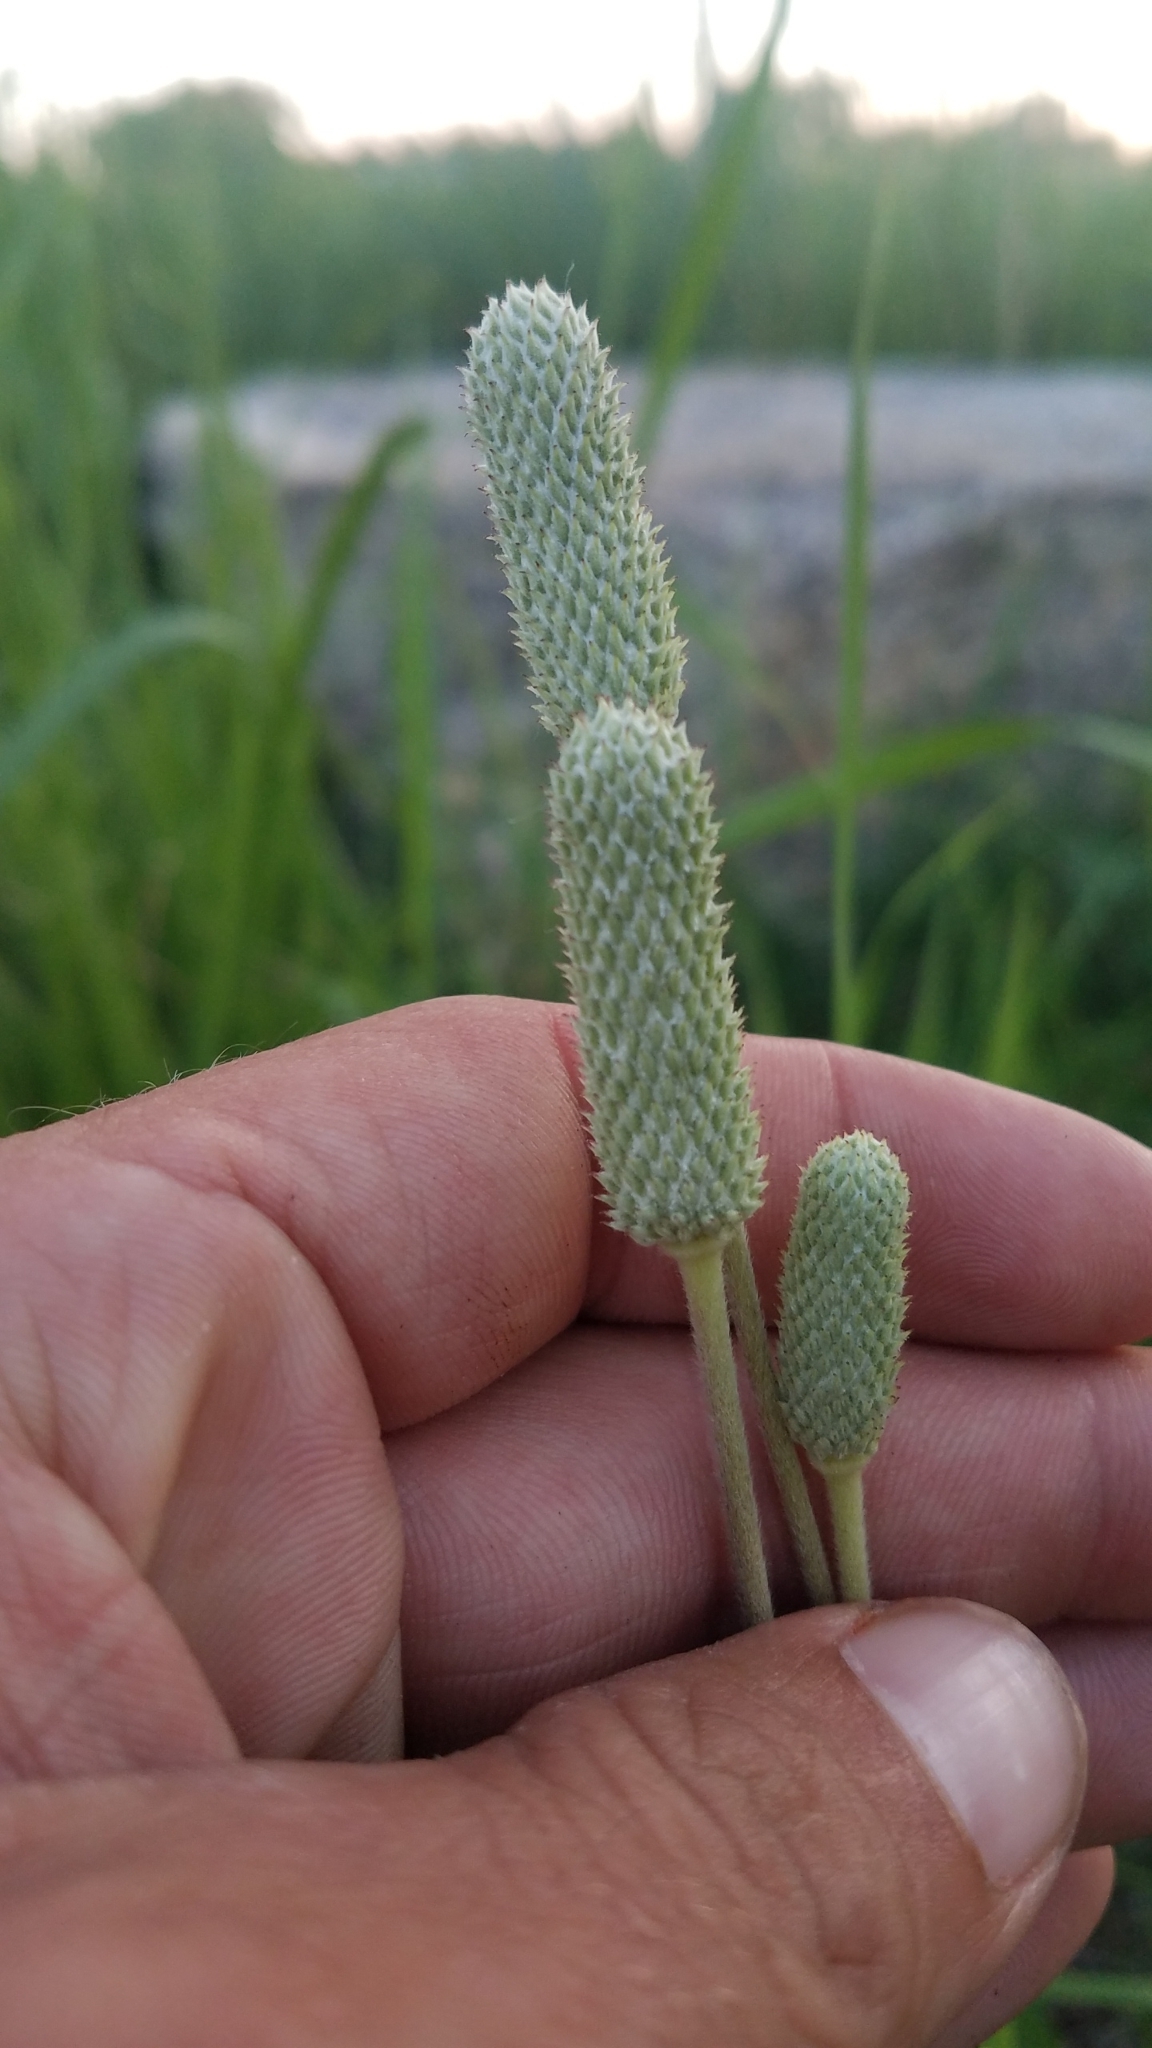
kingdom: Plantae
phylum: Tracheophyta
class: Magnoliopsida
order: Ranunculales
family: Ranunculaceae
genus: Anemone
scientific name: Anemone cylindrica
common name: Candle anemone
